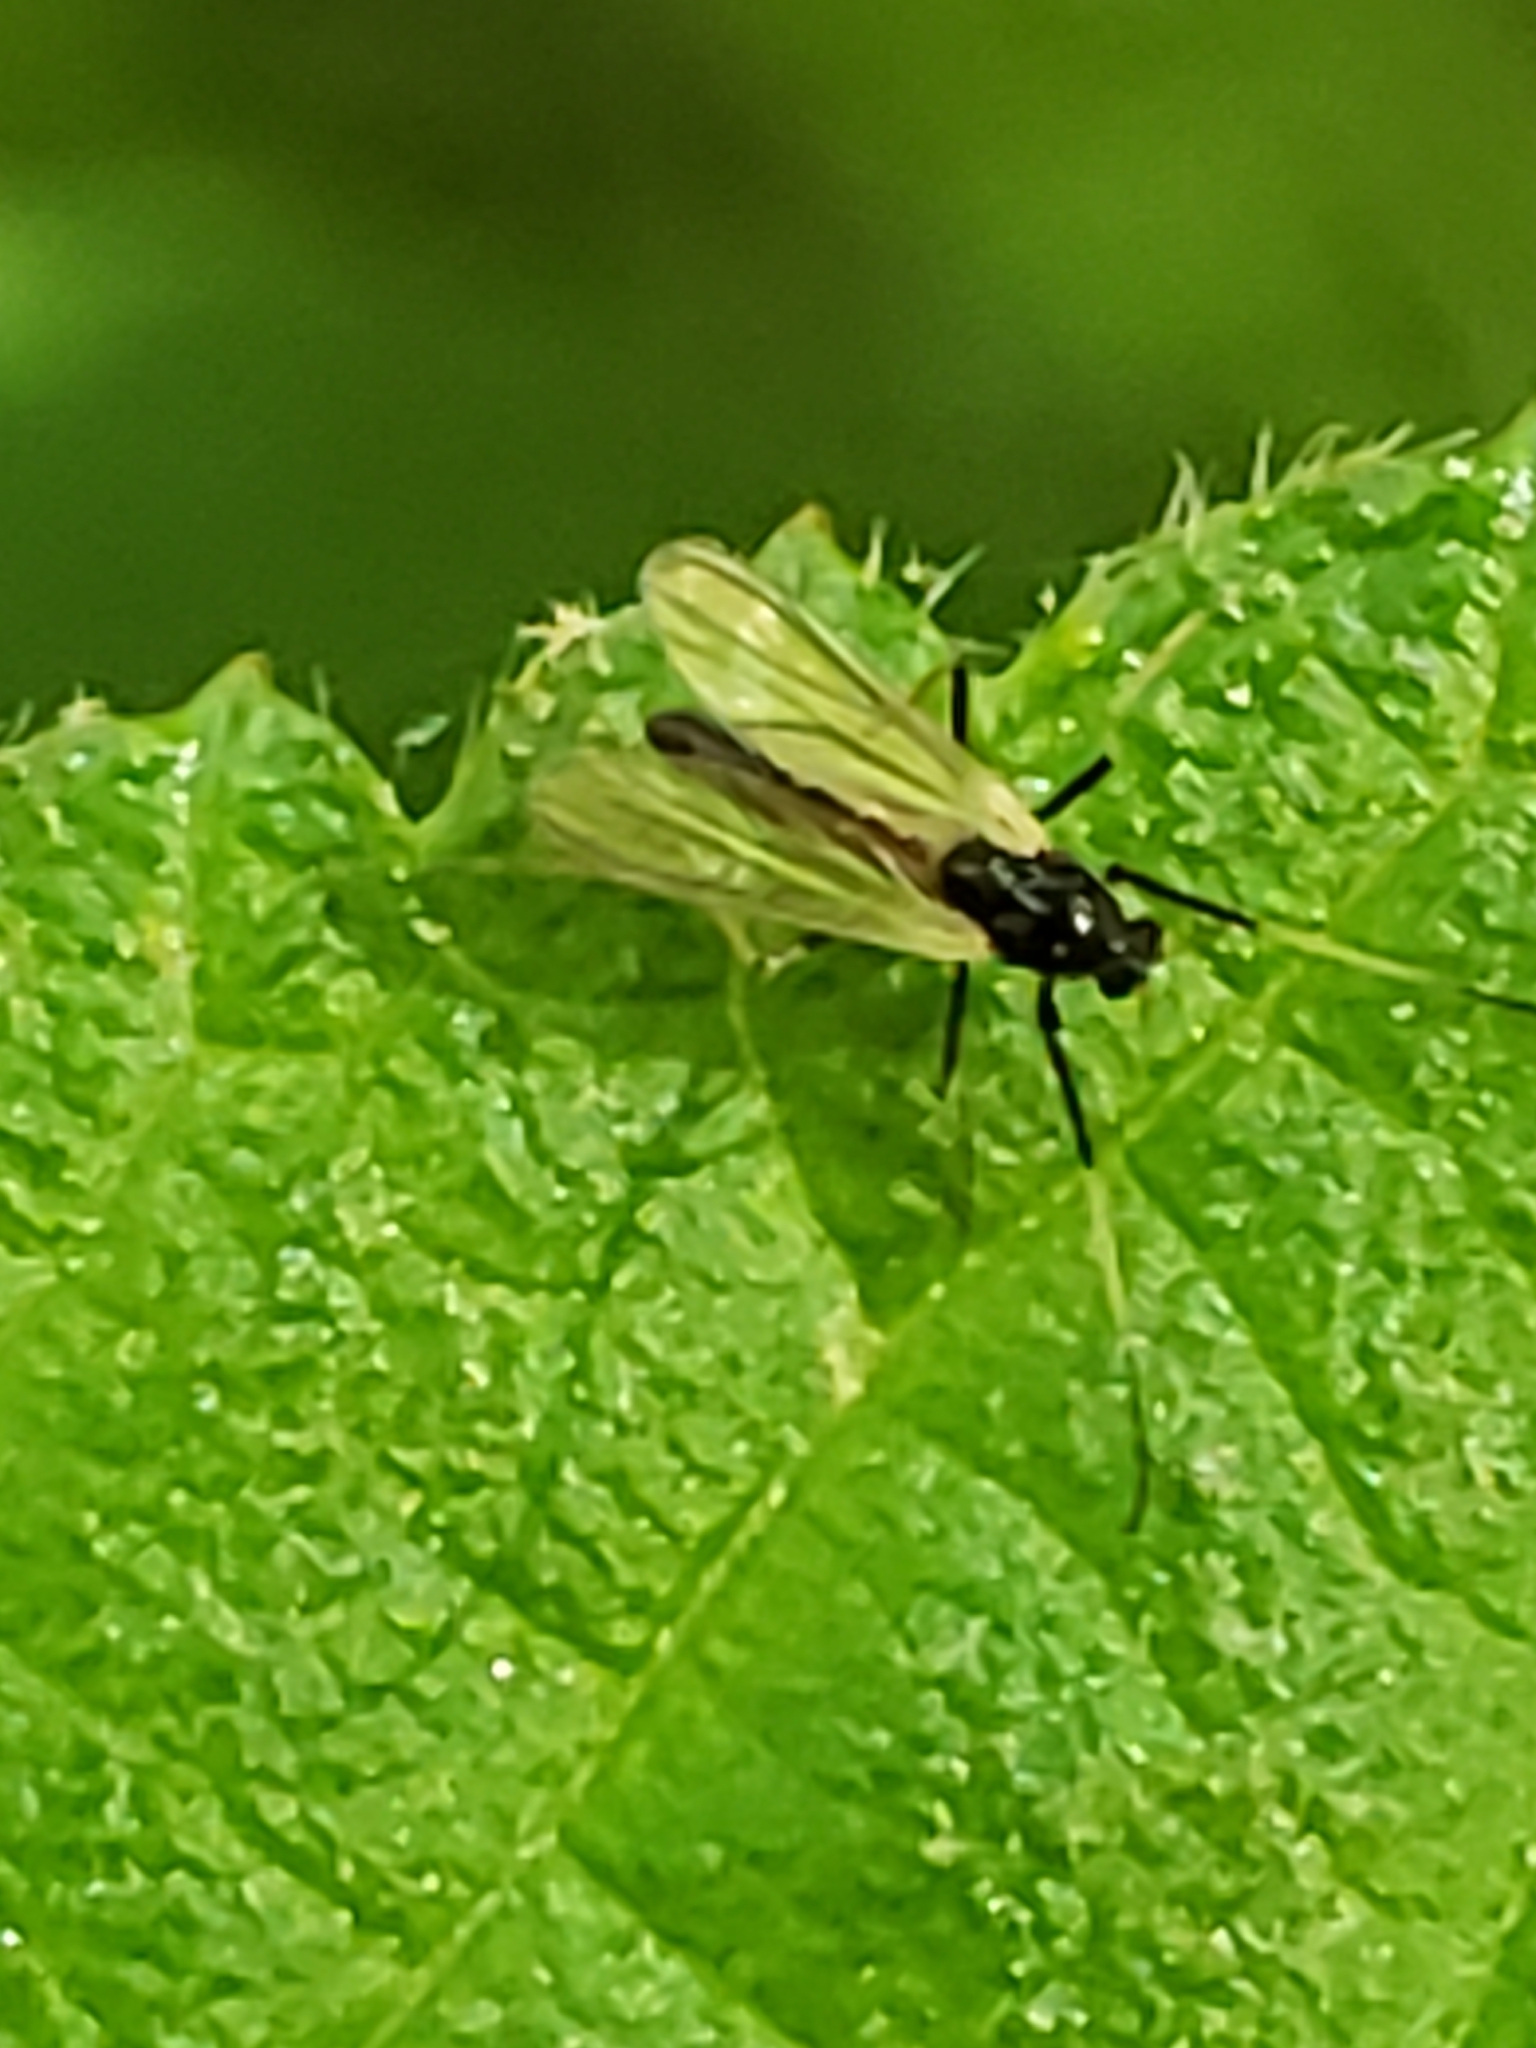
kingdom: Animalia
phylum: Arthropoda
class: Insecta
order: Diptera
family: Chironomidae
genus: Paratendipes
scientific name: Paratendipes albimanus
